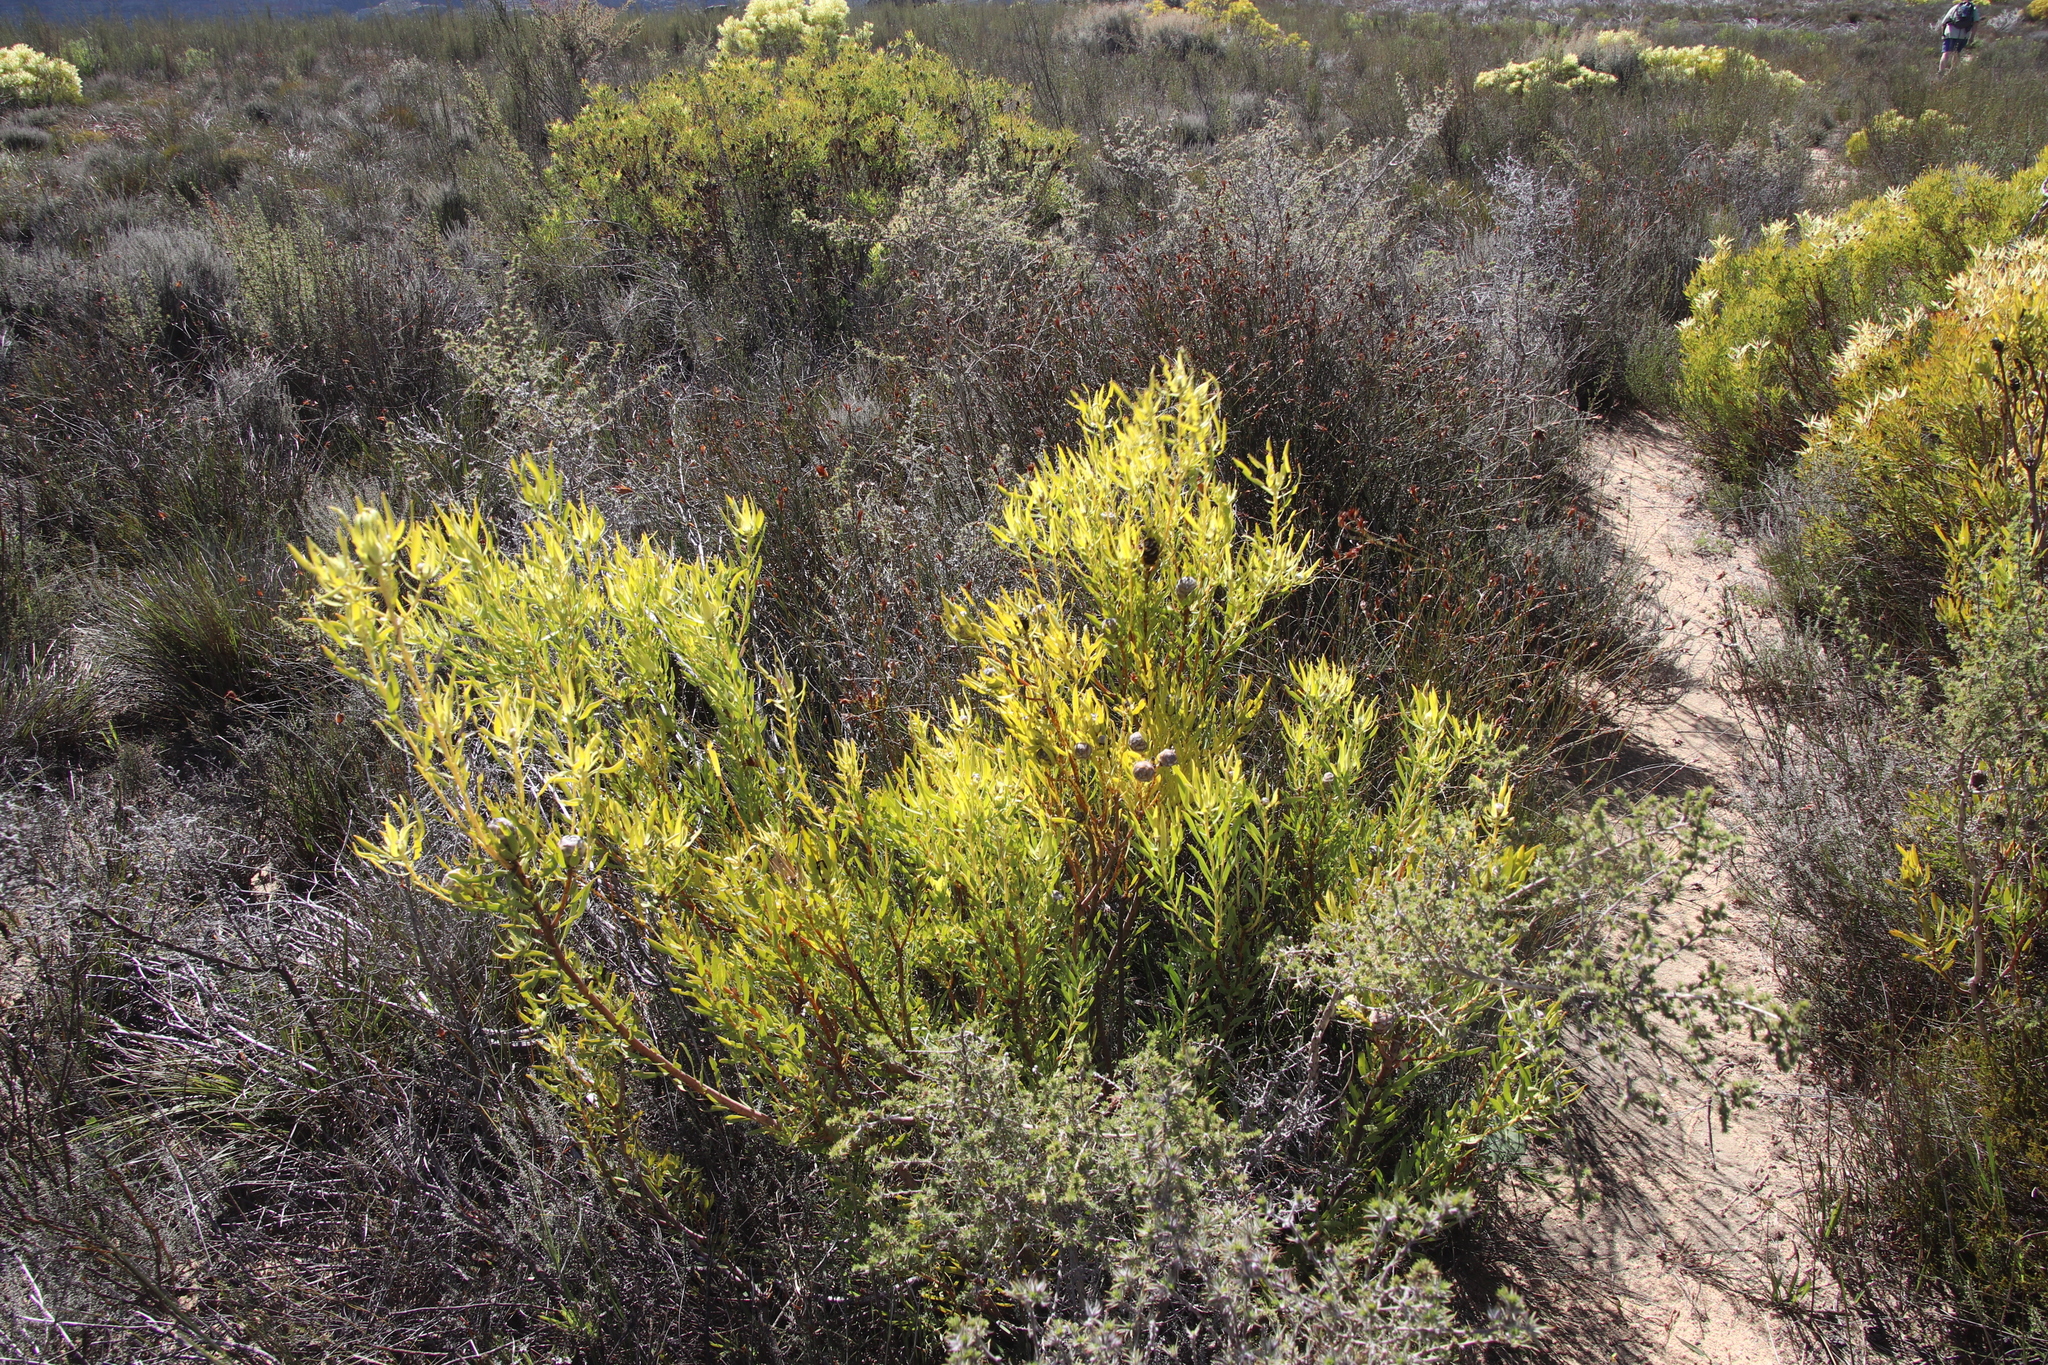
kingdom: Plantae
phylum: Tracheophyta
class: Magnoliopsida
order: Proteales
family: Proteaceae
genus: Leucadendron
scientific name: Leucadendron salignum
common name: Common sunshine conebush
